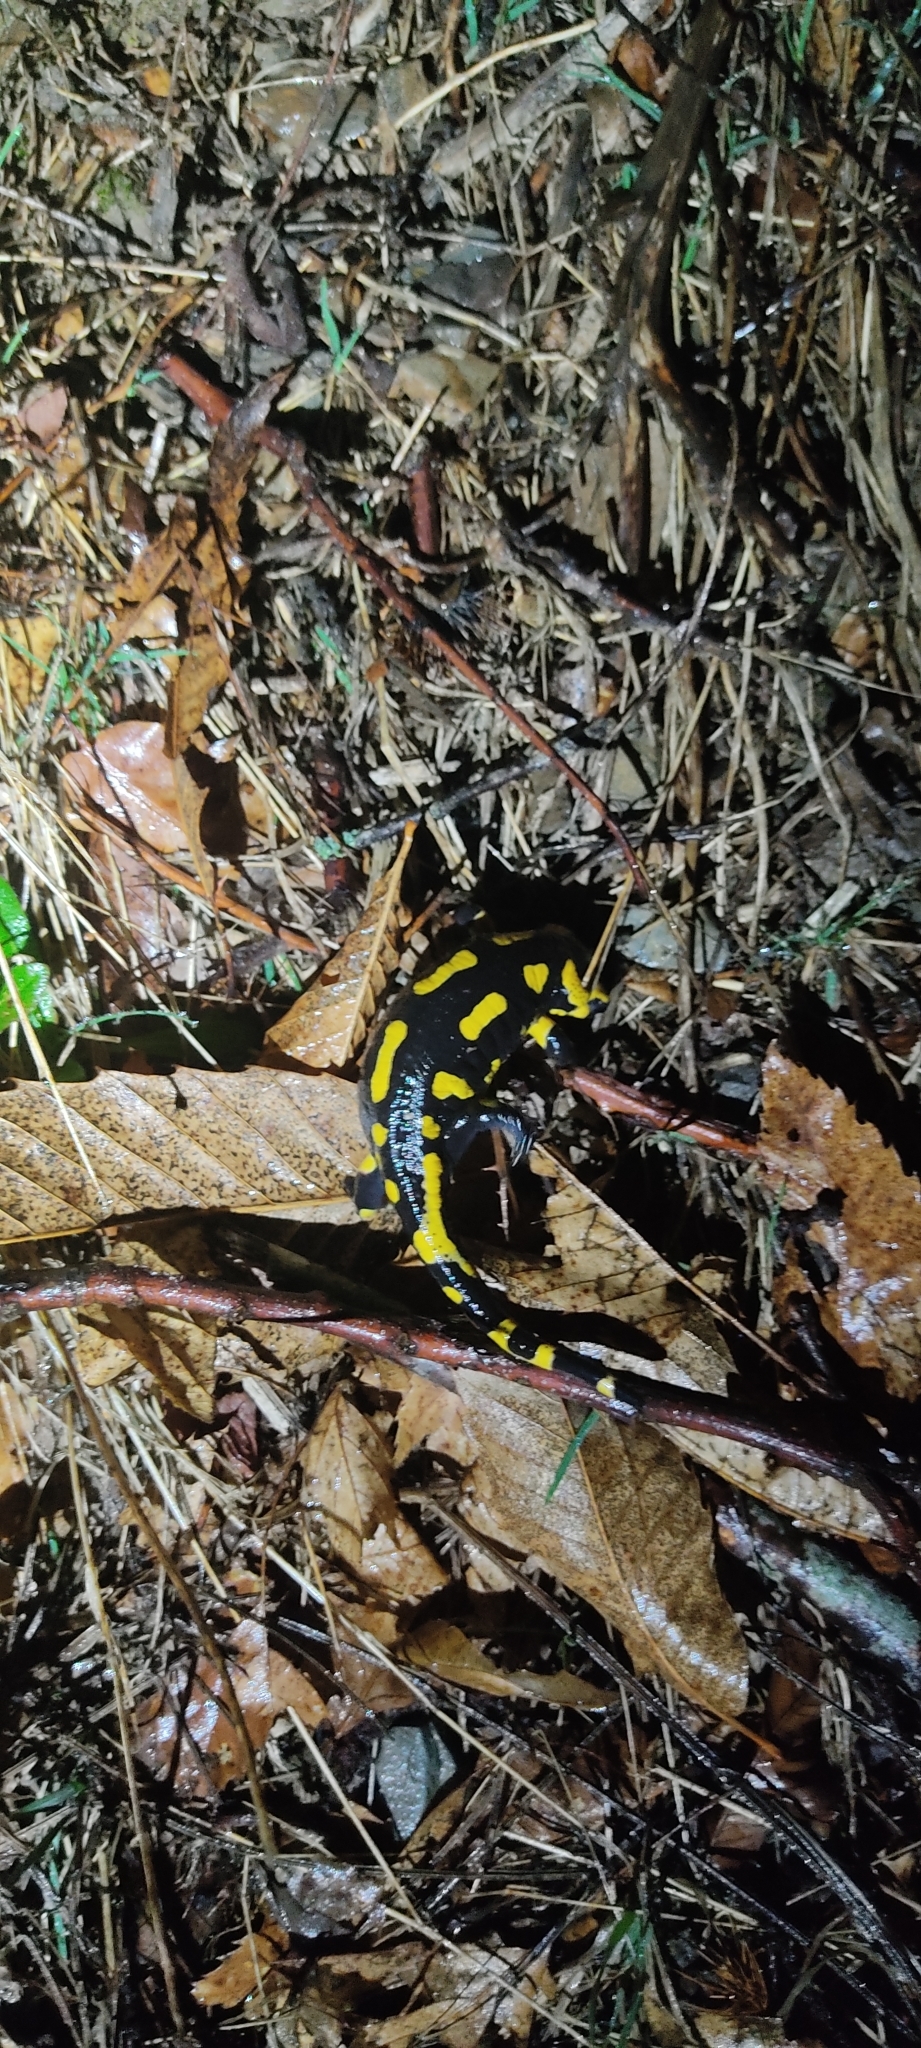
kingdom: Animalia
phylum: Chordata
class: Amphibia
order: Caudata
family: Salamandridae
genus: Salamandra
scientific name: Salamandra salamandra
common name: Fire salamander
